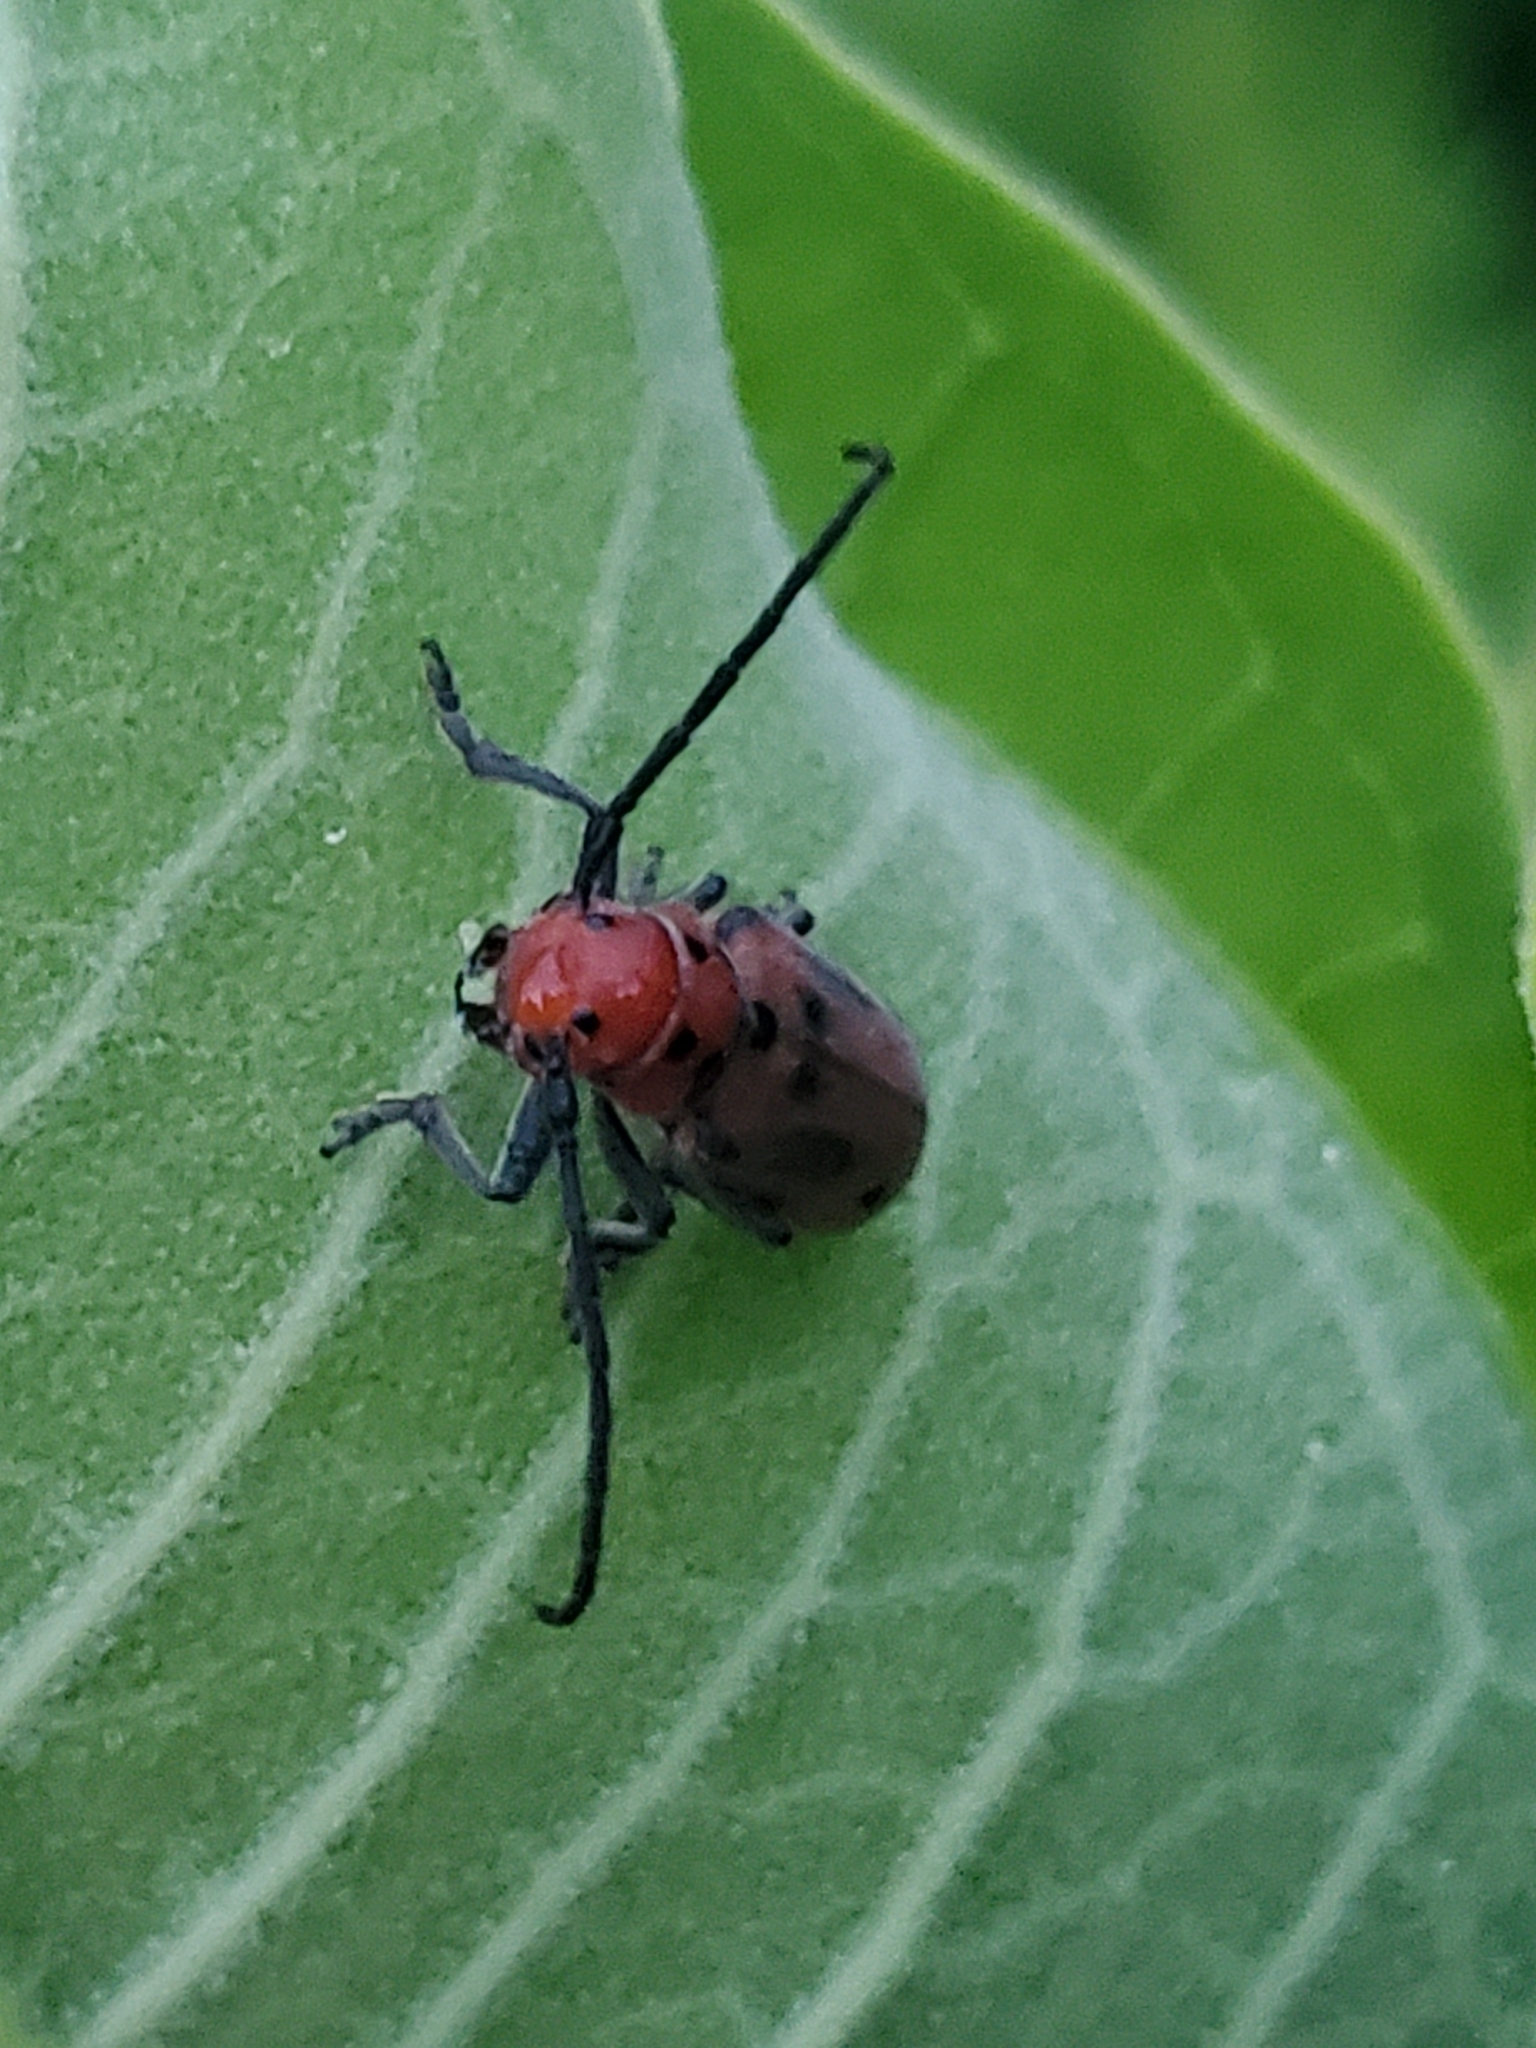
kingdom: Animalia
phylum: Arthropoda
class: Insecta
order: Coleoptera
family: Cerambycidae
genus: Tetraopes
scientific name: Tetraopes tetrophthalmus
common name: Red milkweed beetle
